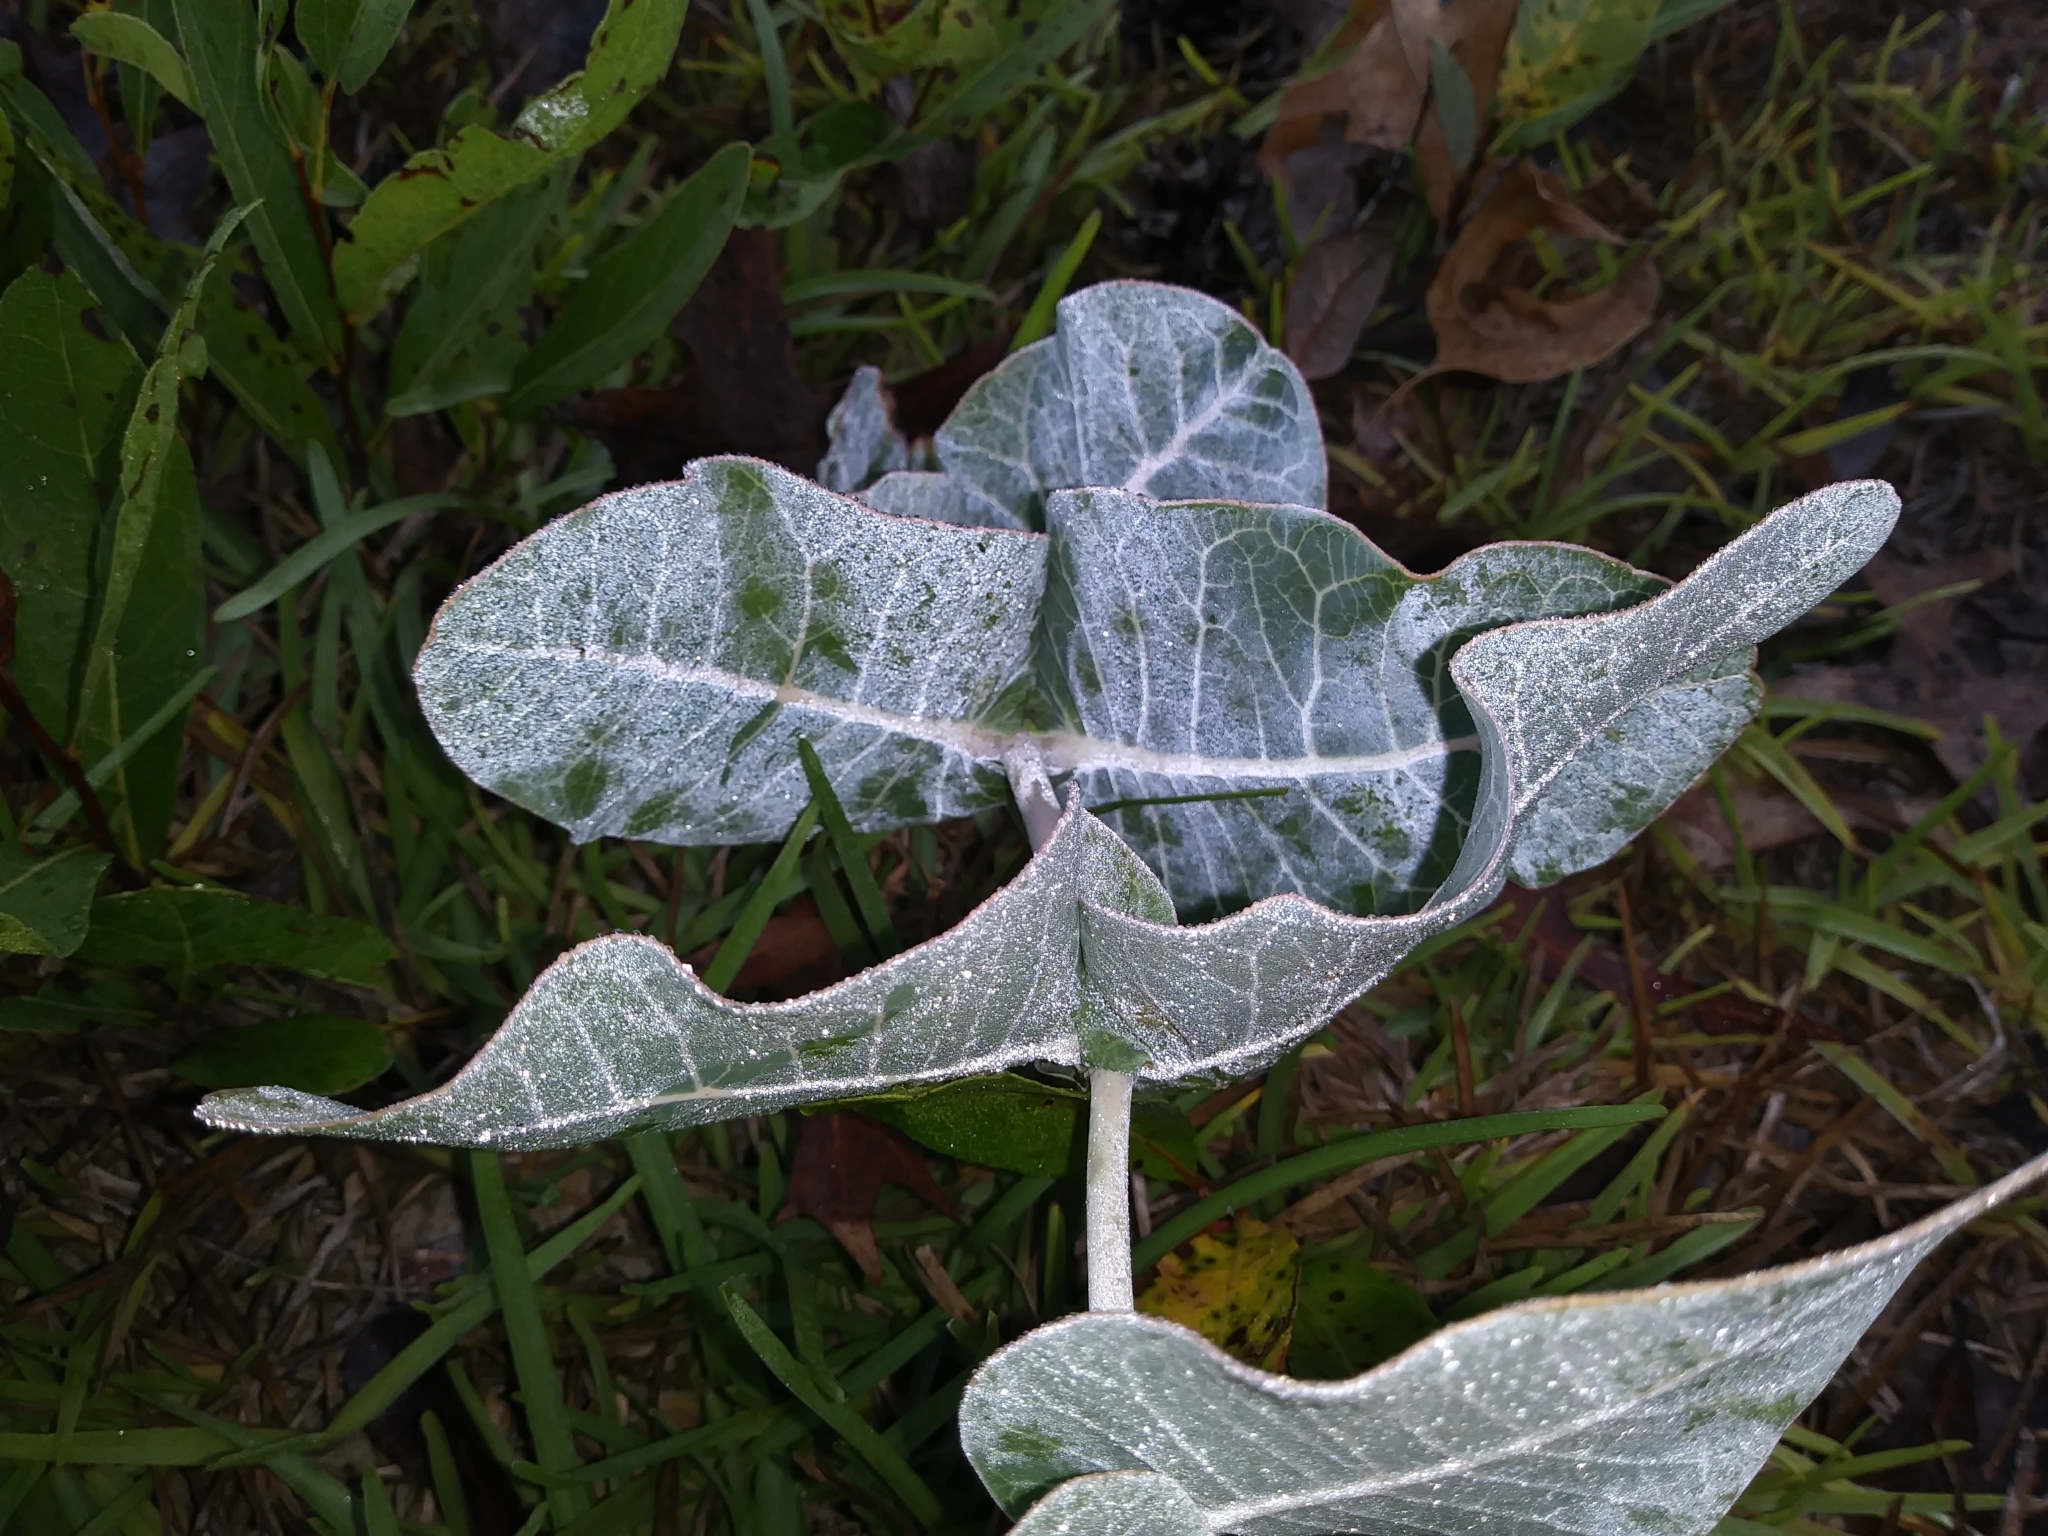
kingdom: Plantae
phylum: Tracheophyta
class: Magnoliopsida
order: Gentianales
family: Apocynaceae
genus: Asclepias
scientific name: Asclepias humistrata
